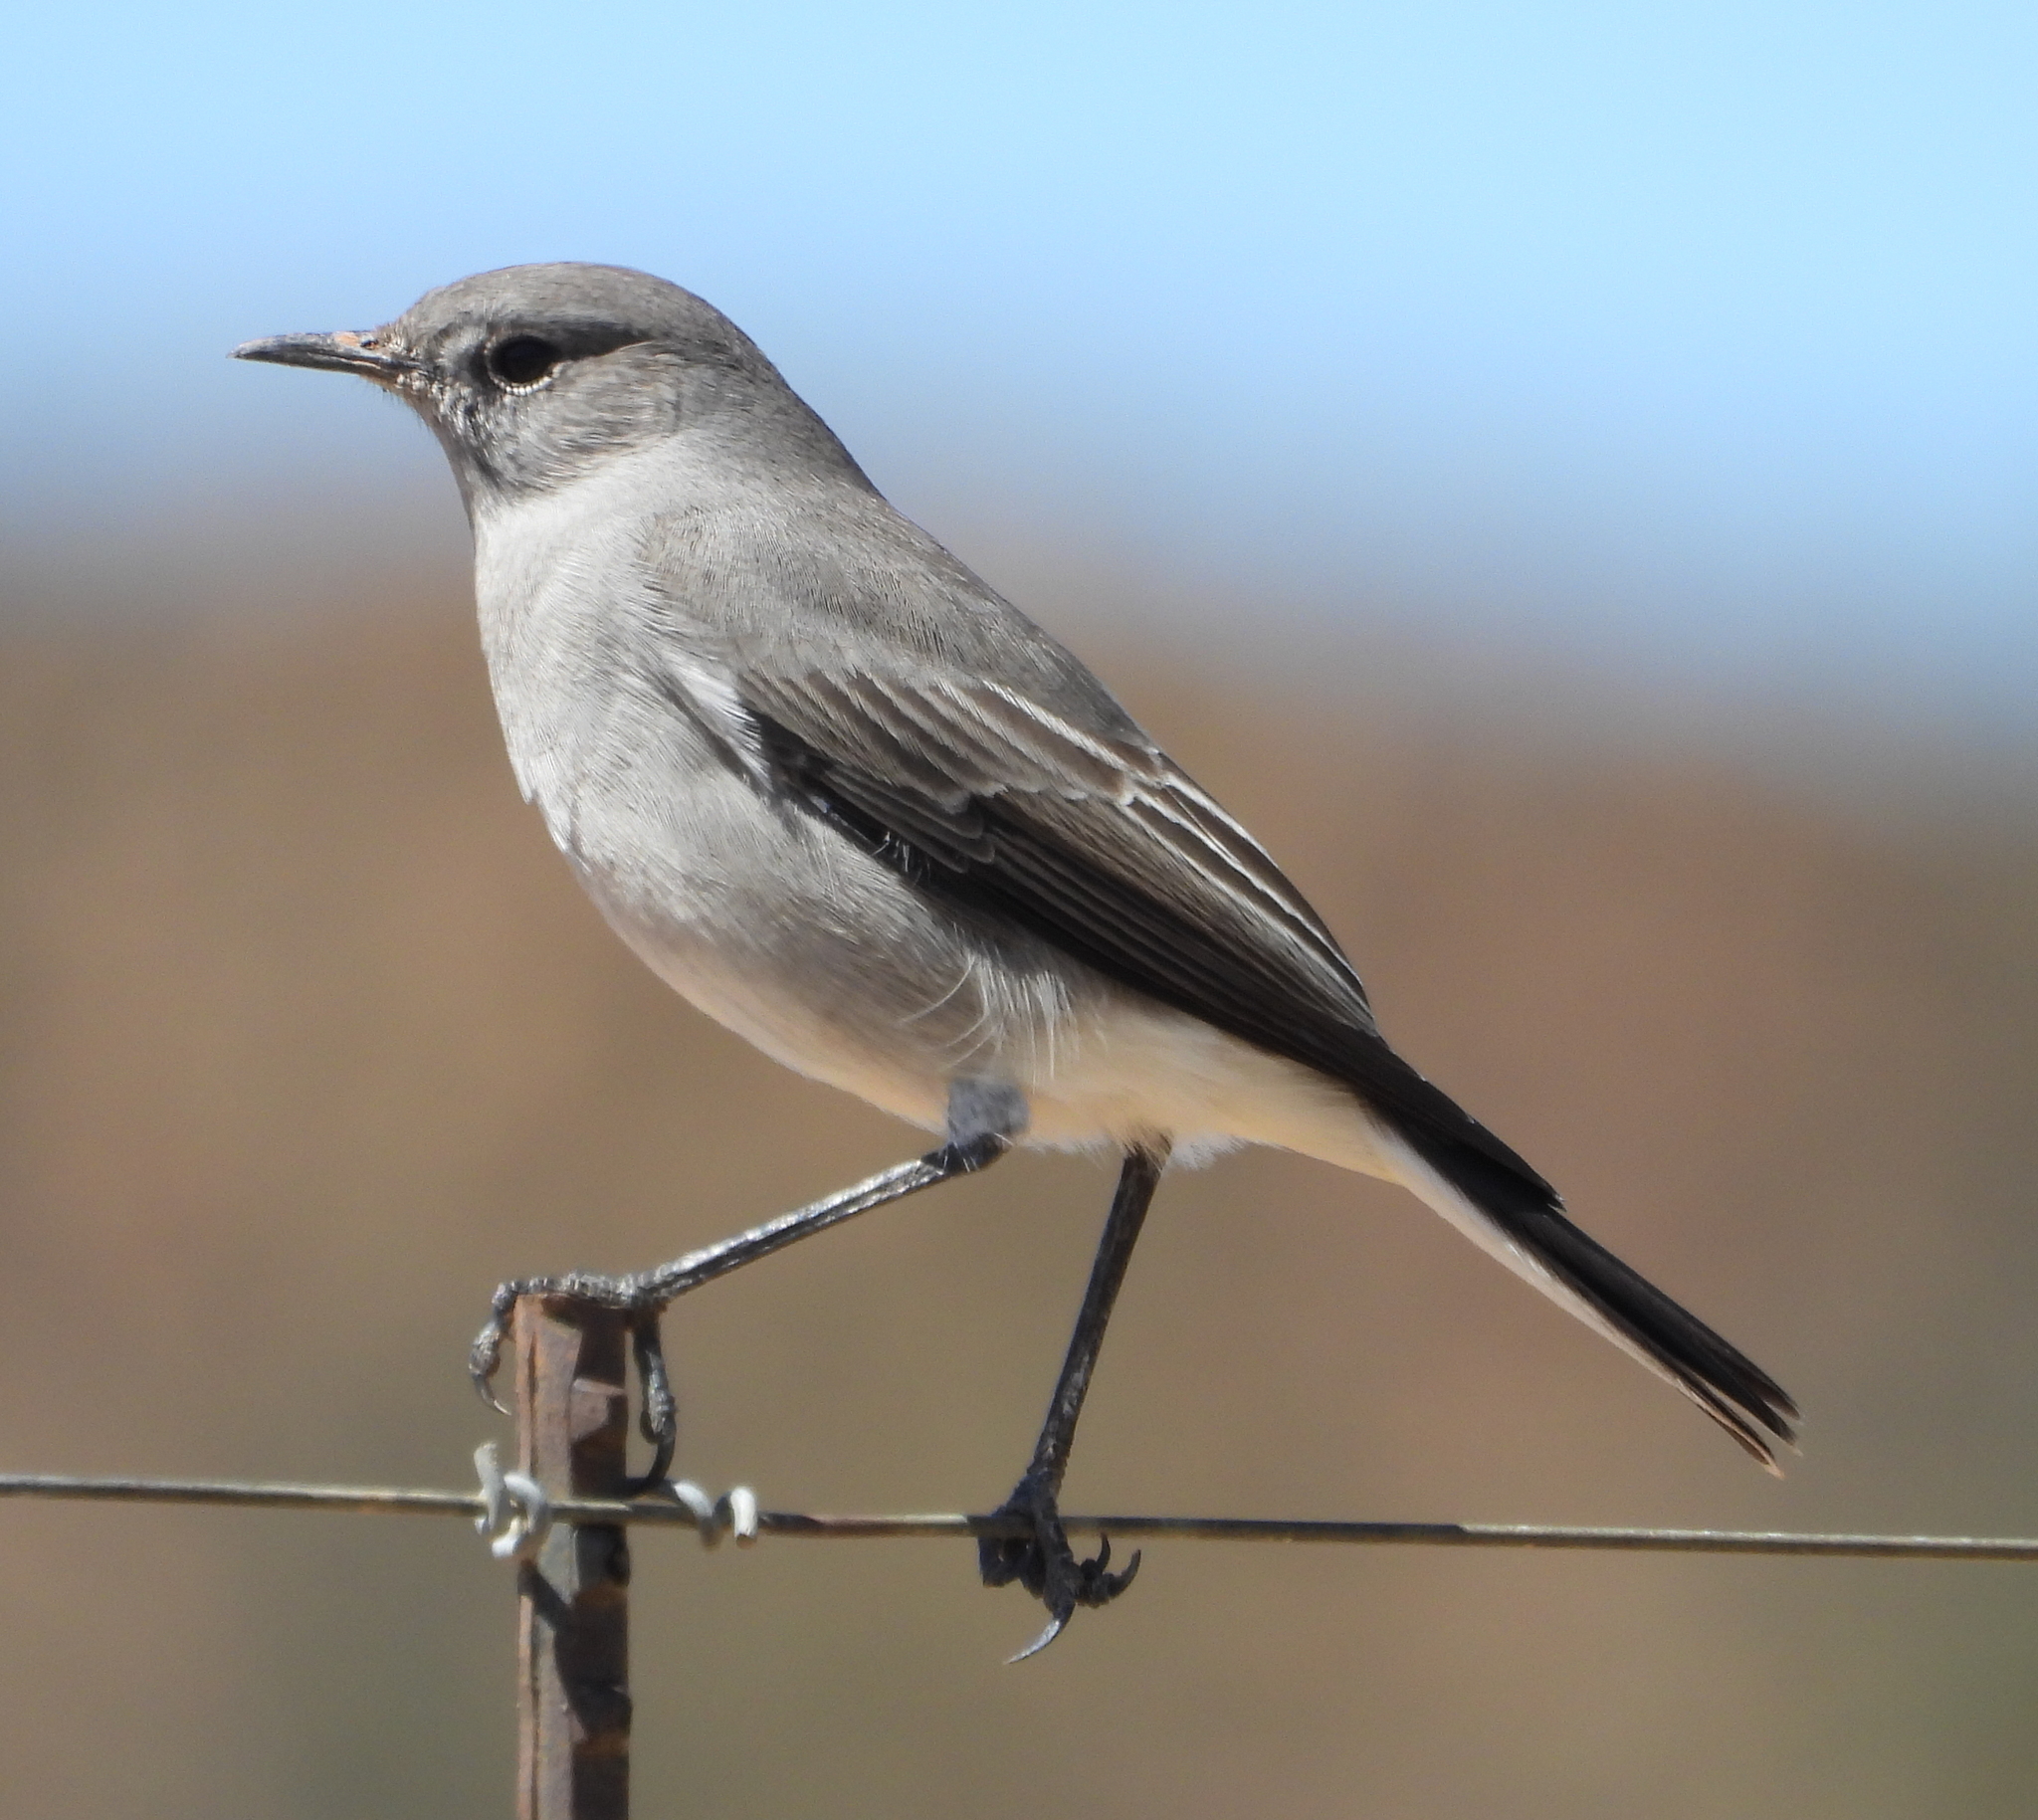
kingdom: Animalia
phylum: Chordata
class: Aves
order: Passeriformes
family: Muscicapidae
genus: Emarginata
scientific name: Emarginata schlegelii
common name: Karoo chat
